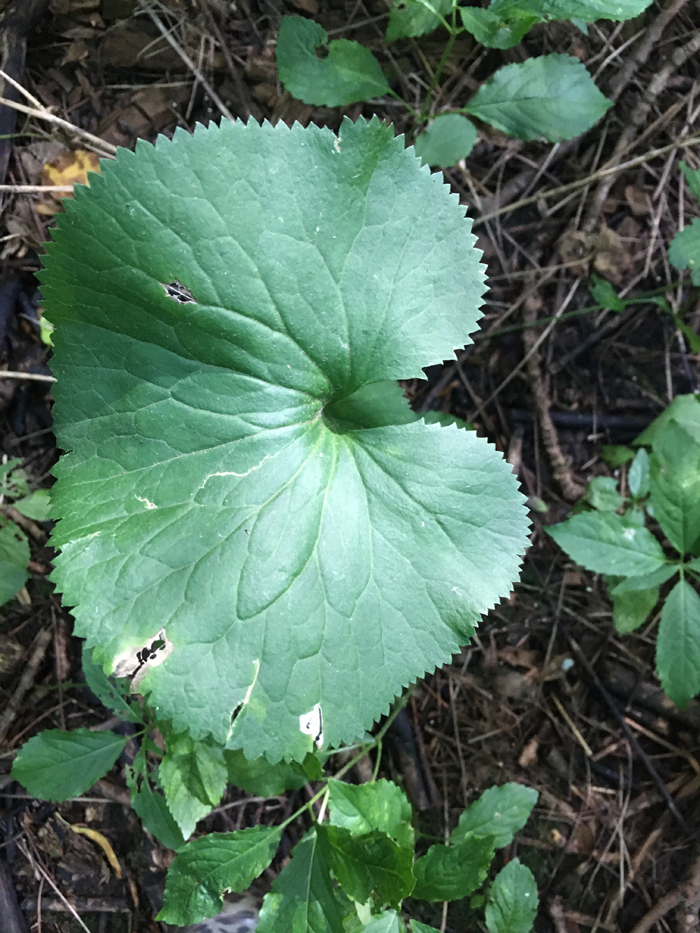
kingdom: Plantae
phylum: Tracheophyta
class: Magnoliopsida
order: Ranunculales
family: Ranunculaceae
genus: Ranunculus
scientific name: Ranunculus cassubicus
